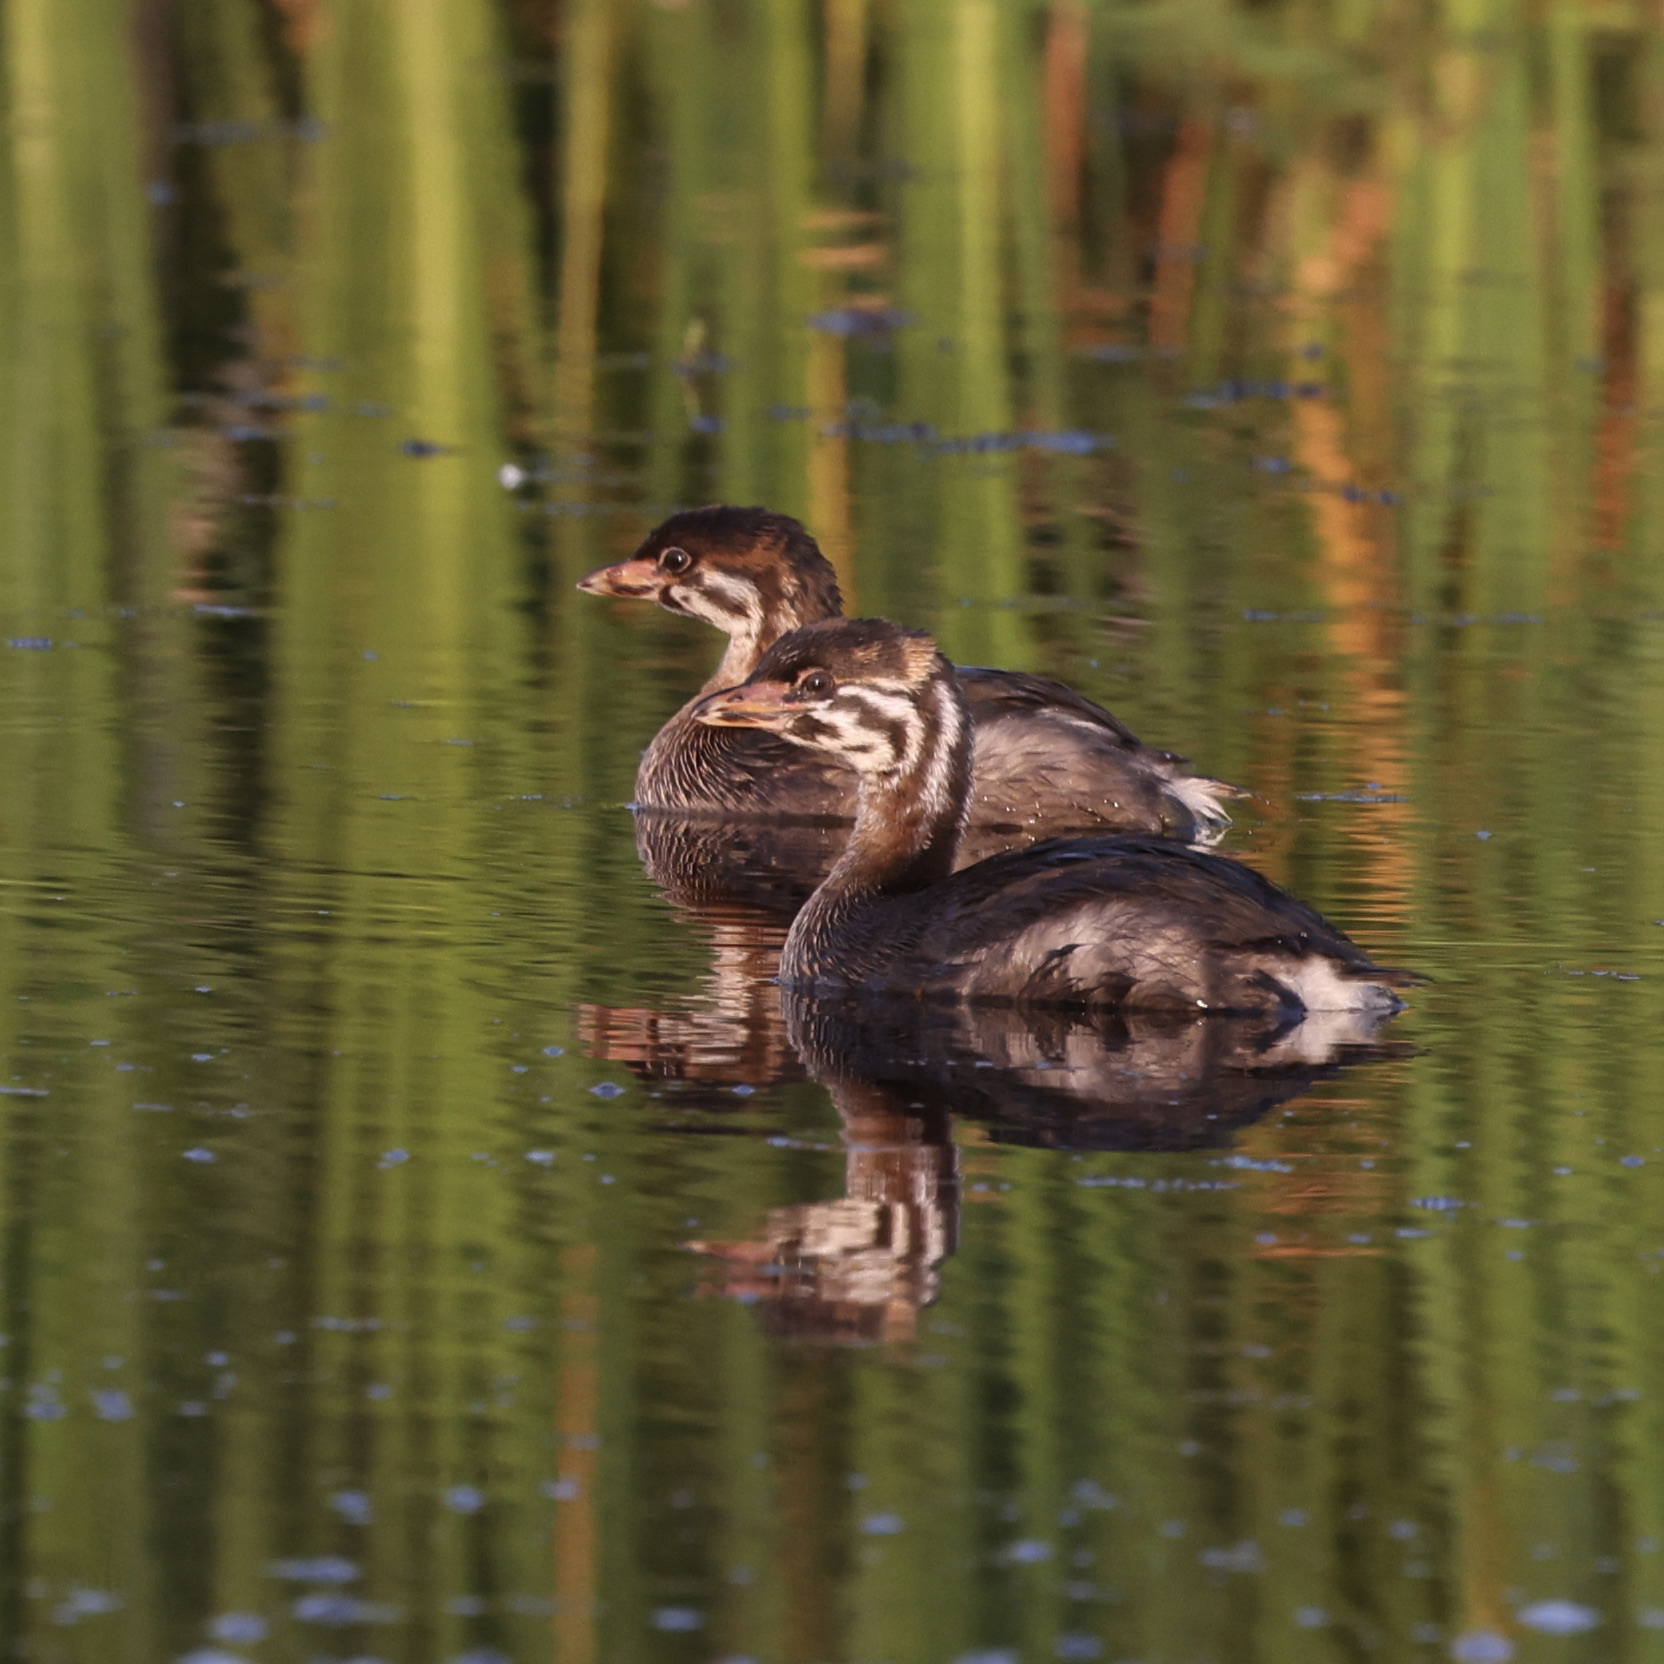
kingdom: Animalia
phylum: Chordata
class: Aves
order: Podicipediformes
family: Podicipedidae
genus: Podilymbus
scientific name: Podilymbus podiceps
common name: Pied-billed grebe
